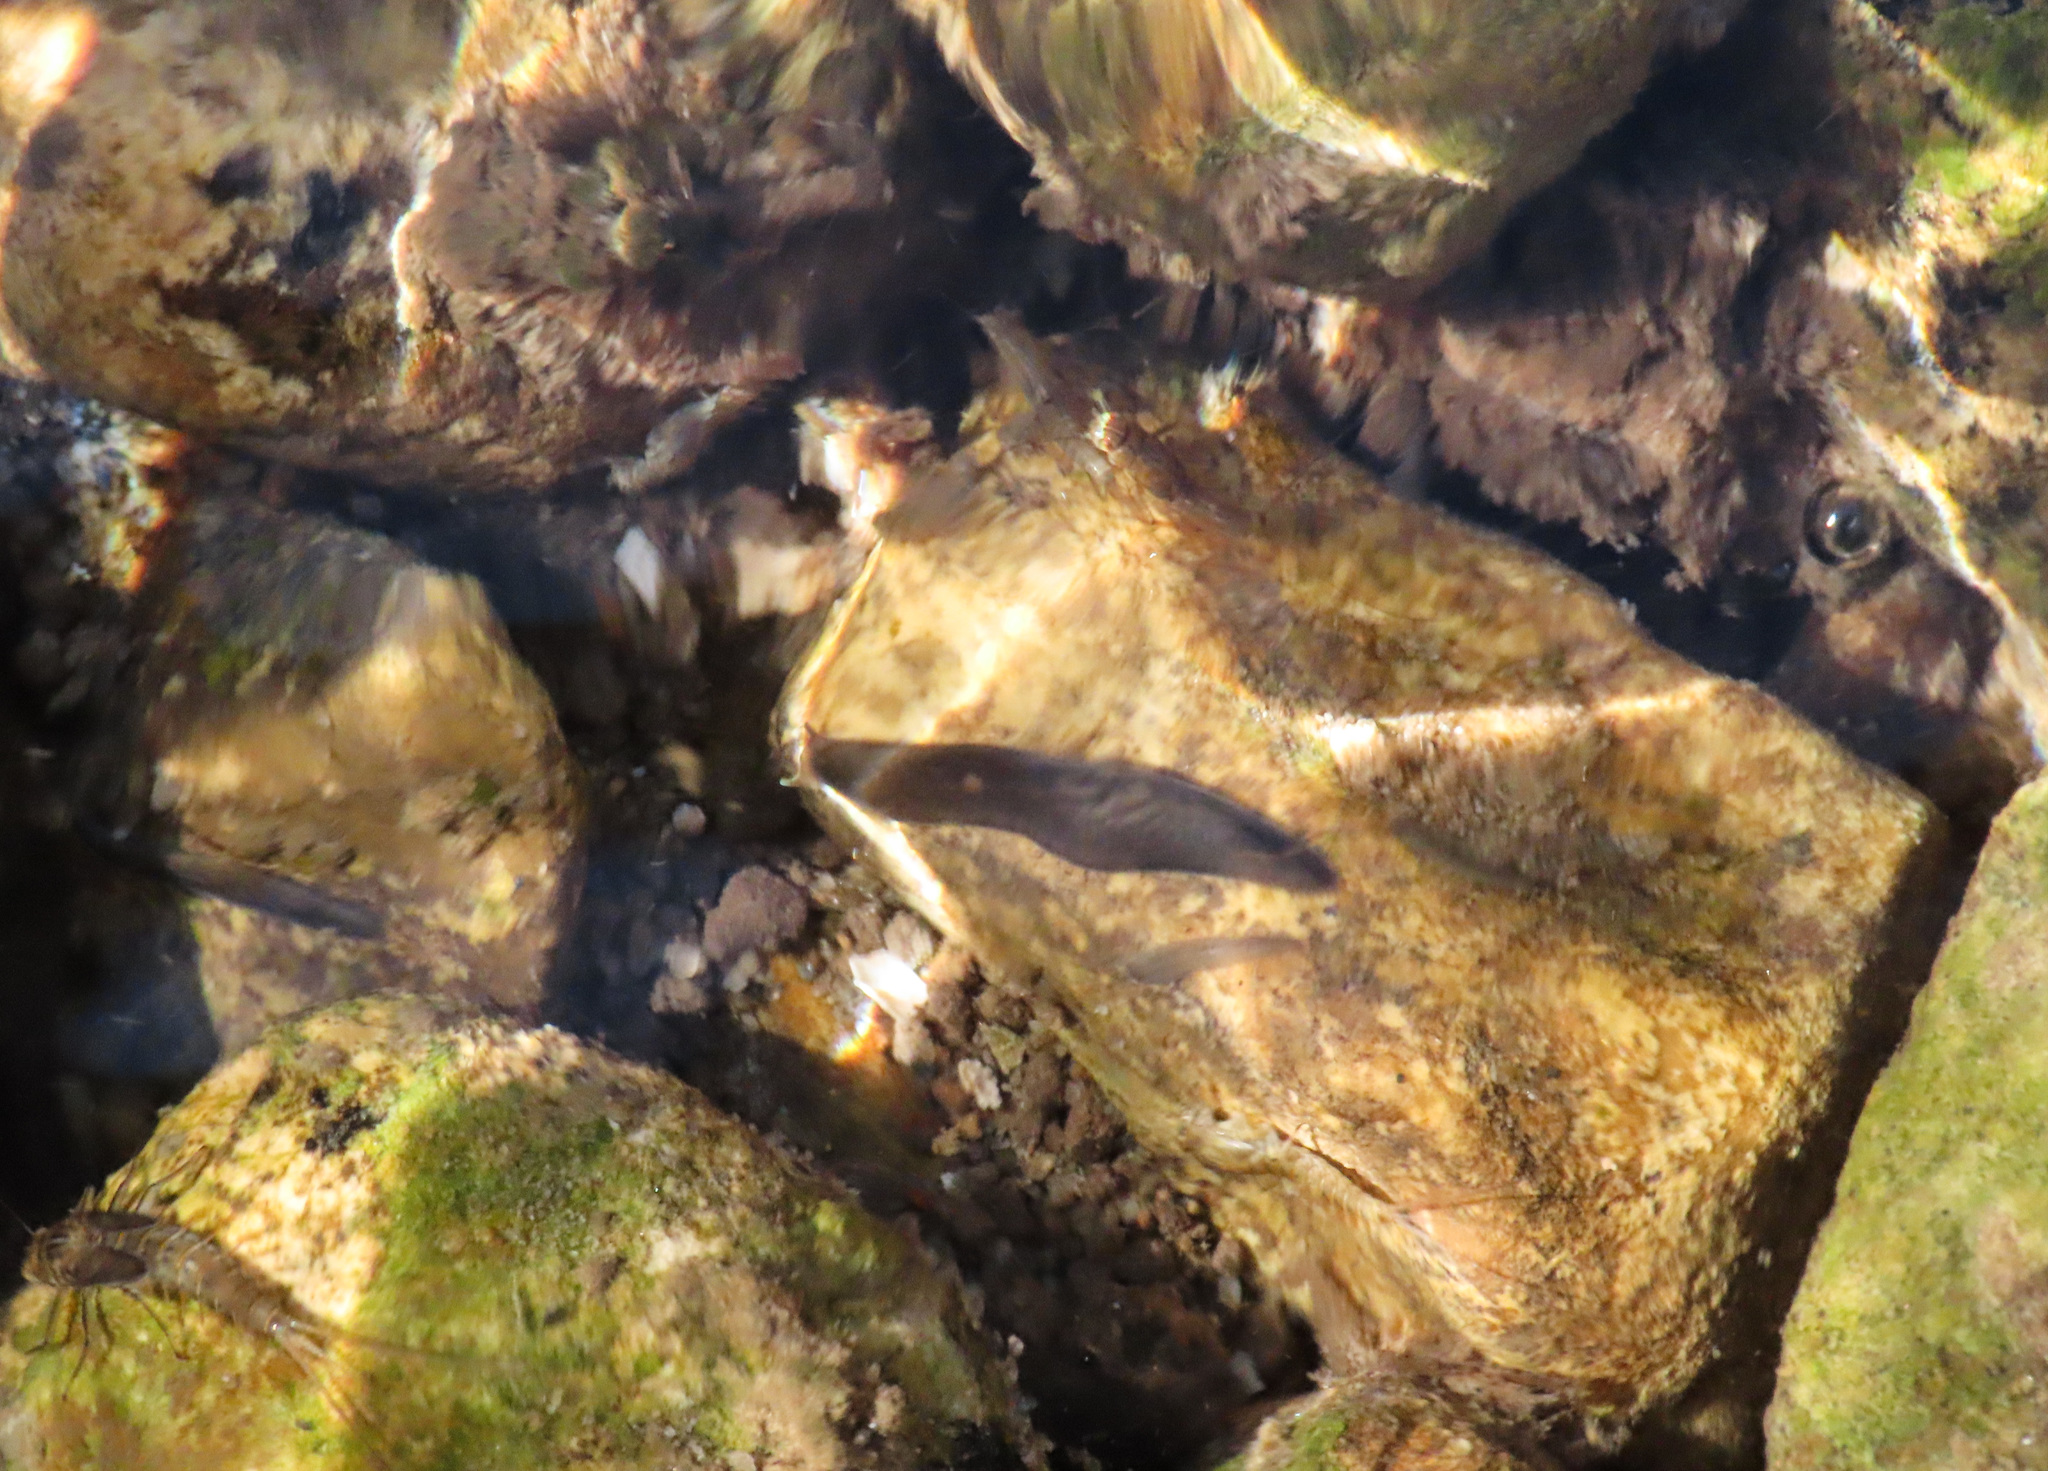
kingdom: Animalia
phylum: Platyhelminthes
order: Tricladida
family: Planariidae
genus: Crenobia
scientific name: Crenobia alpina
